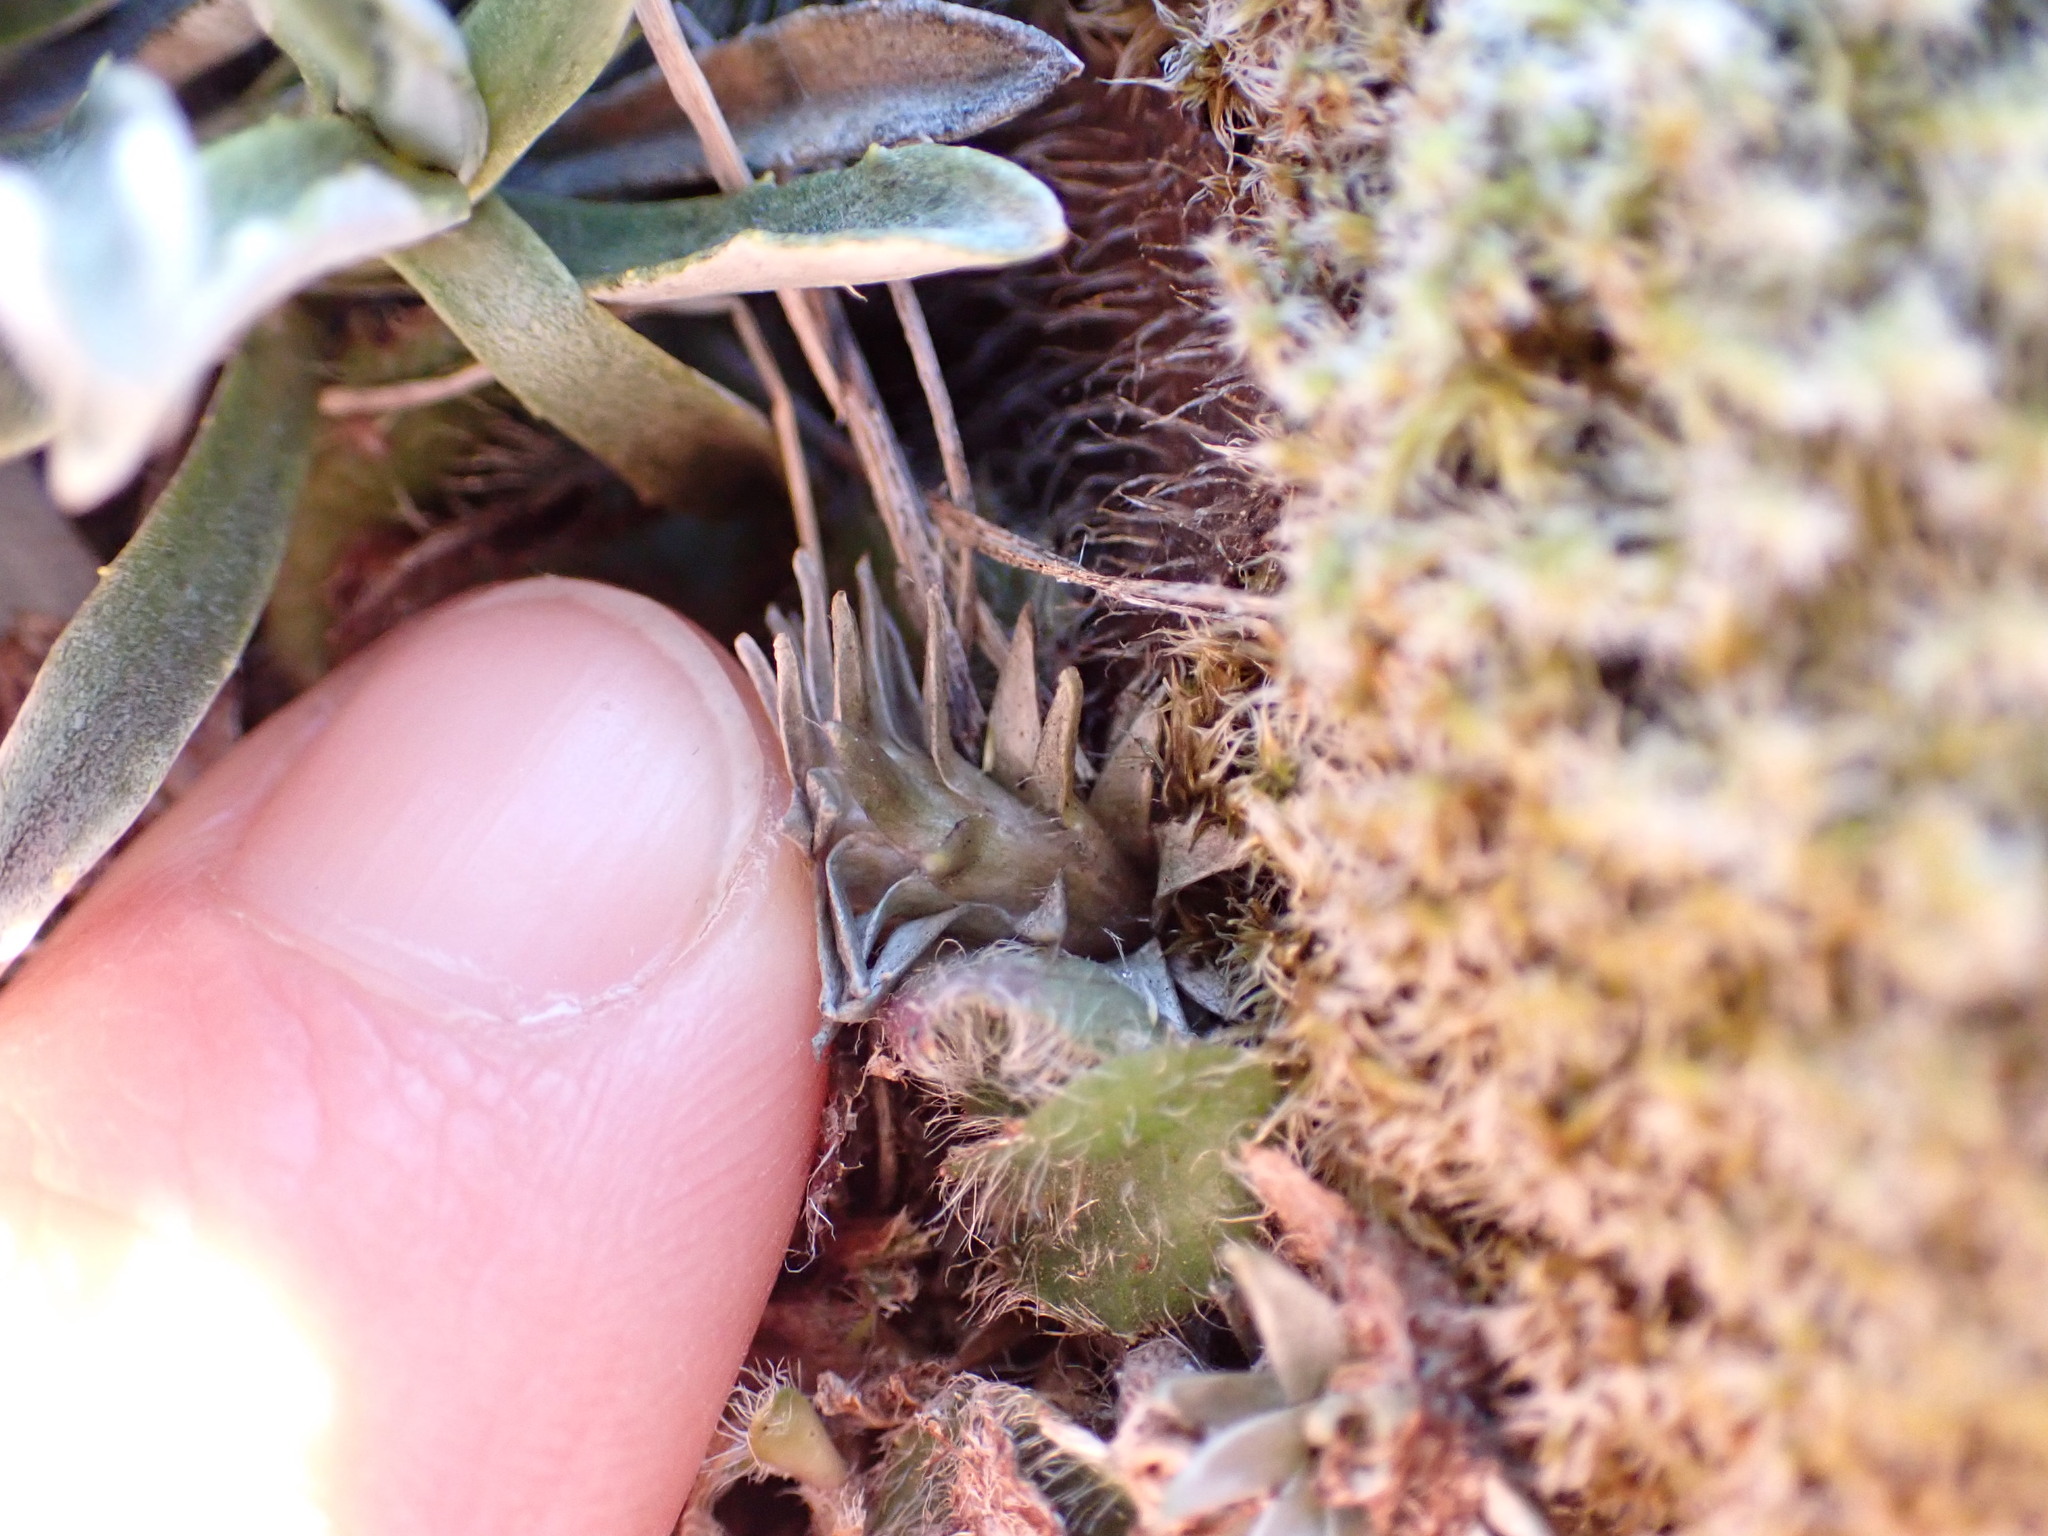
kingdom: Plantae
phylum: Tracheophyta
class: Magnoliopsida
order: Asterales
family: Asteraceae
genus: Raoulia
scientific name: Raoulia grandiflora
